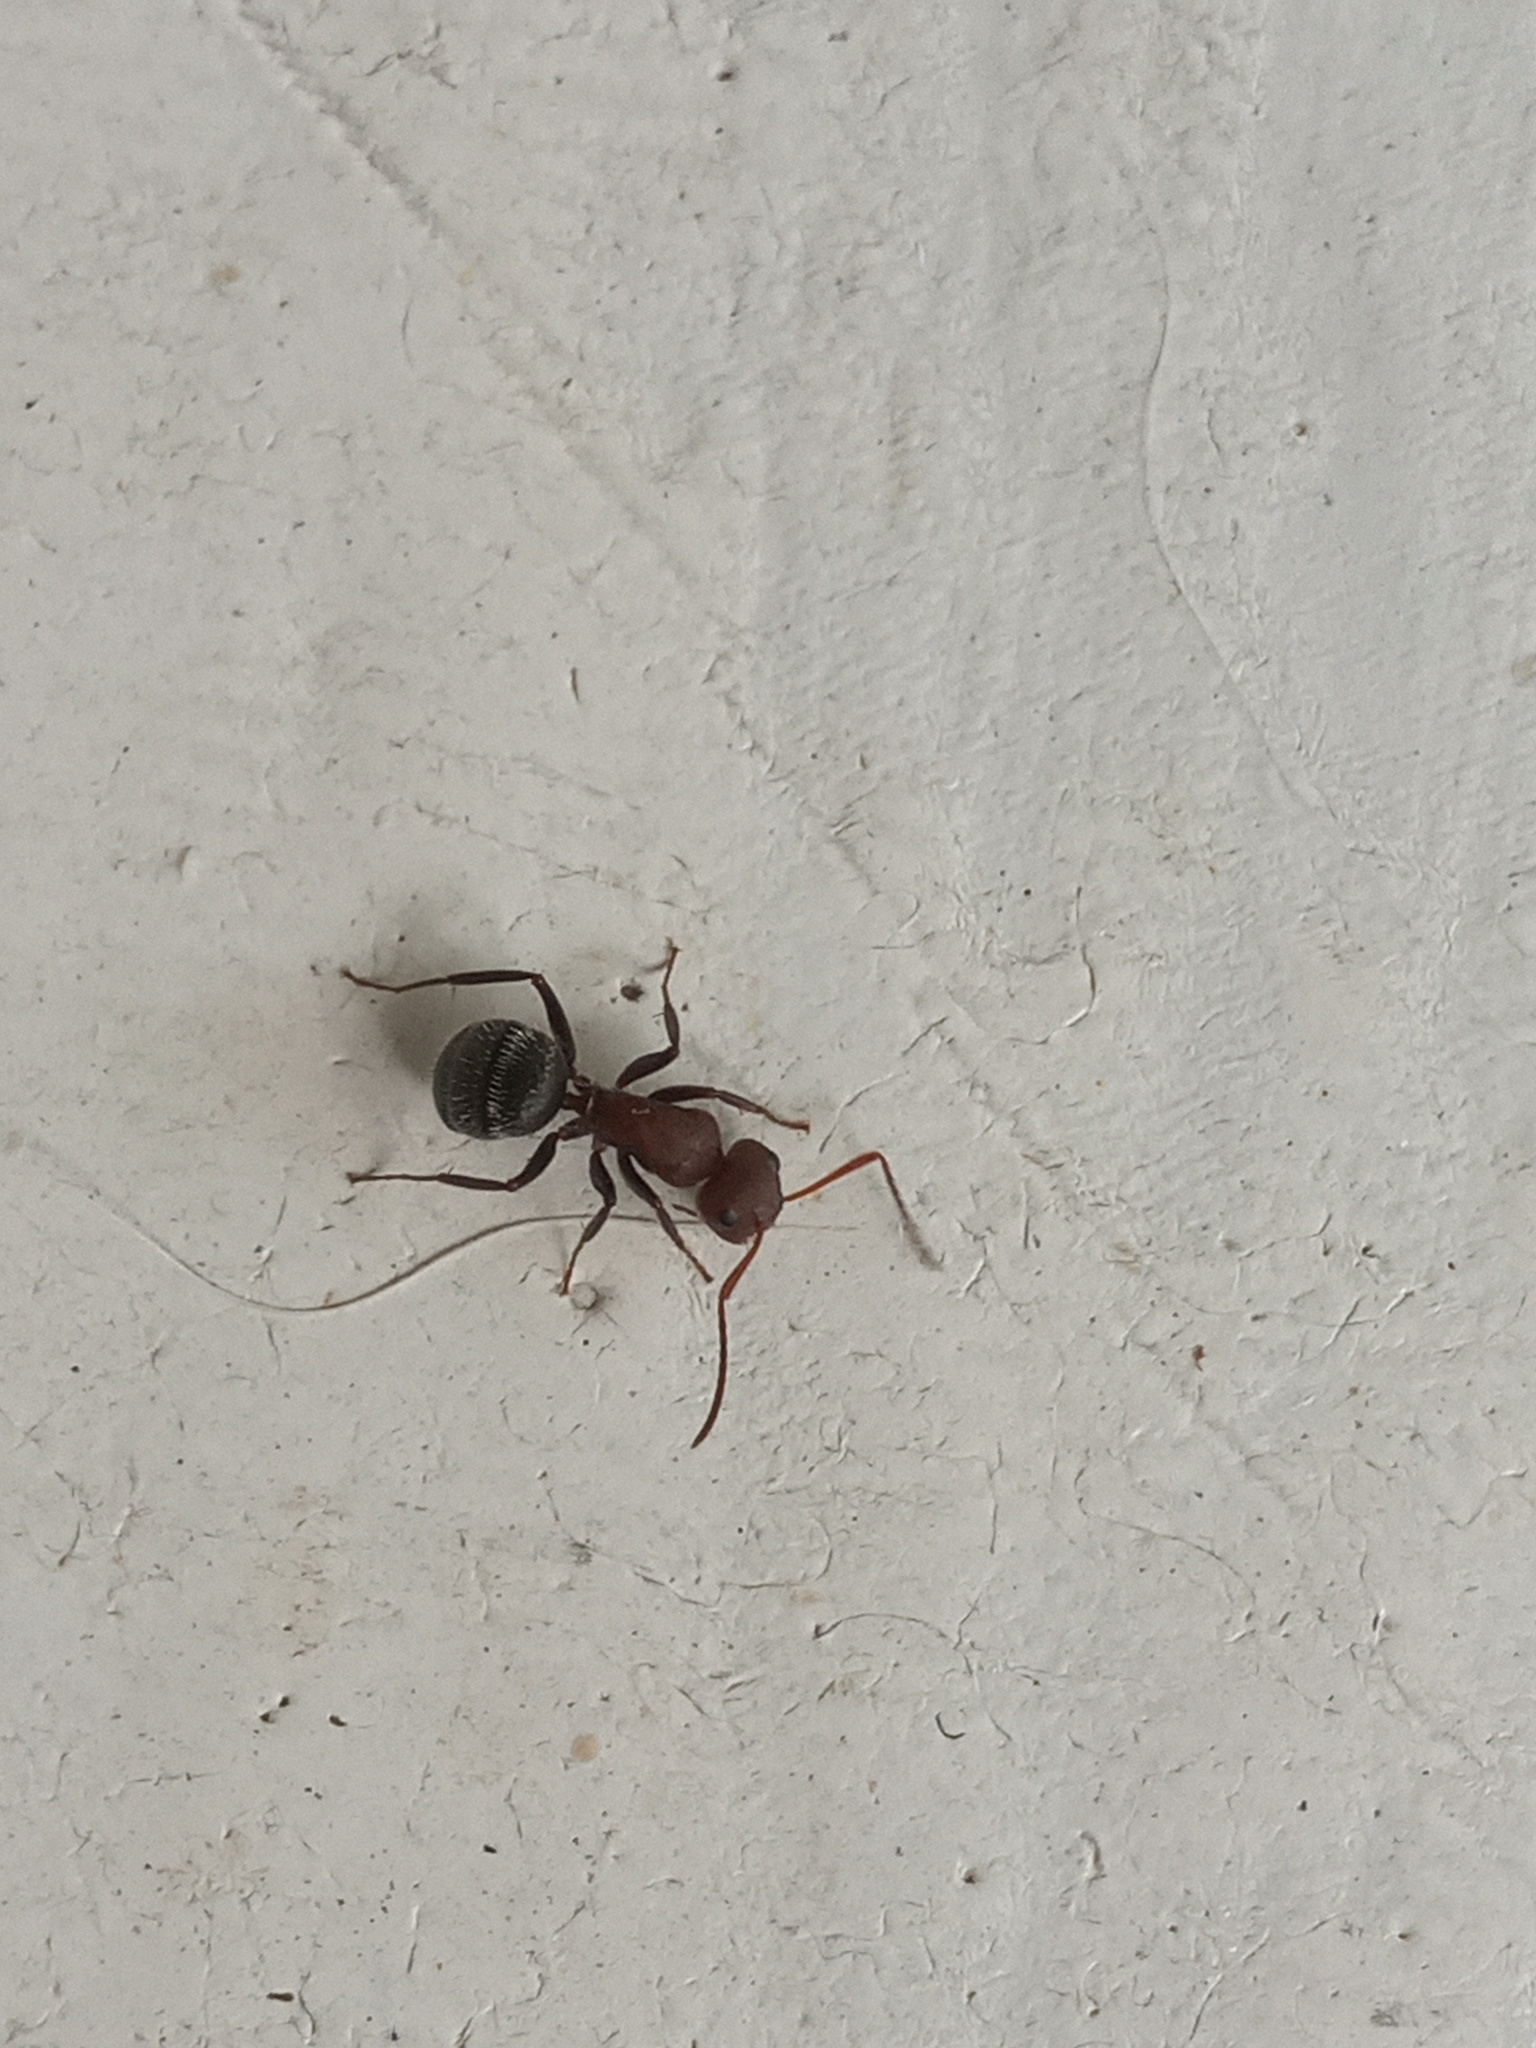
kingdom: Animalia
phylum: Arthropoda
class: Insecta
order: Hymenoptera
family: Formicidae
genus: Camponotus
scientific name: Camponotus planatus
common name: Compact carpenter ant
